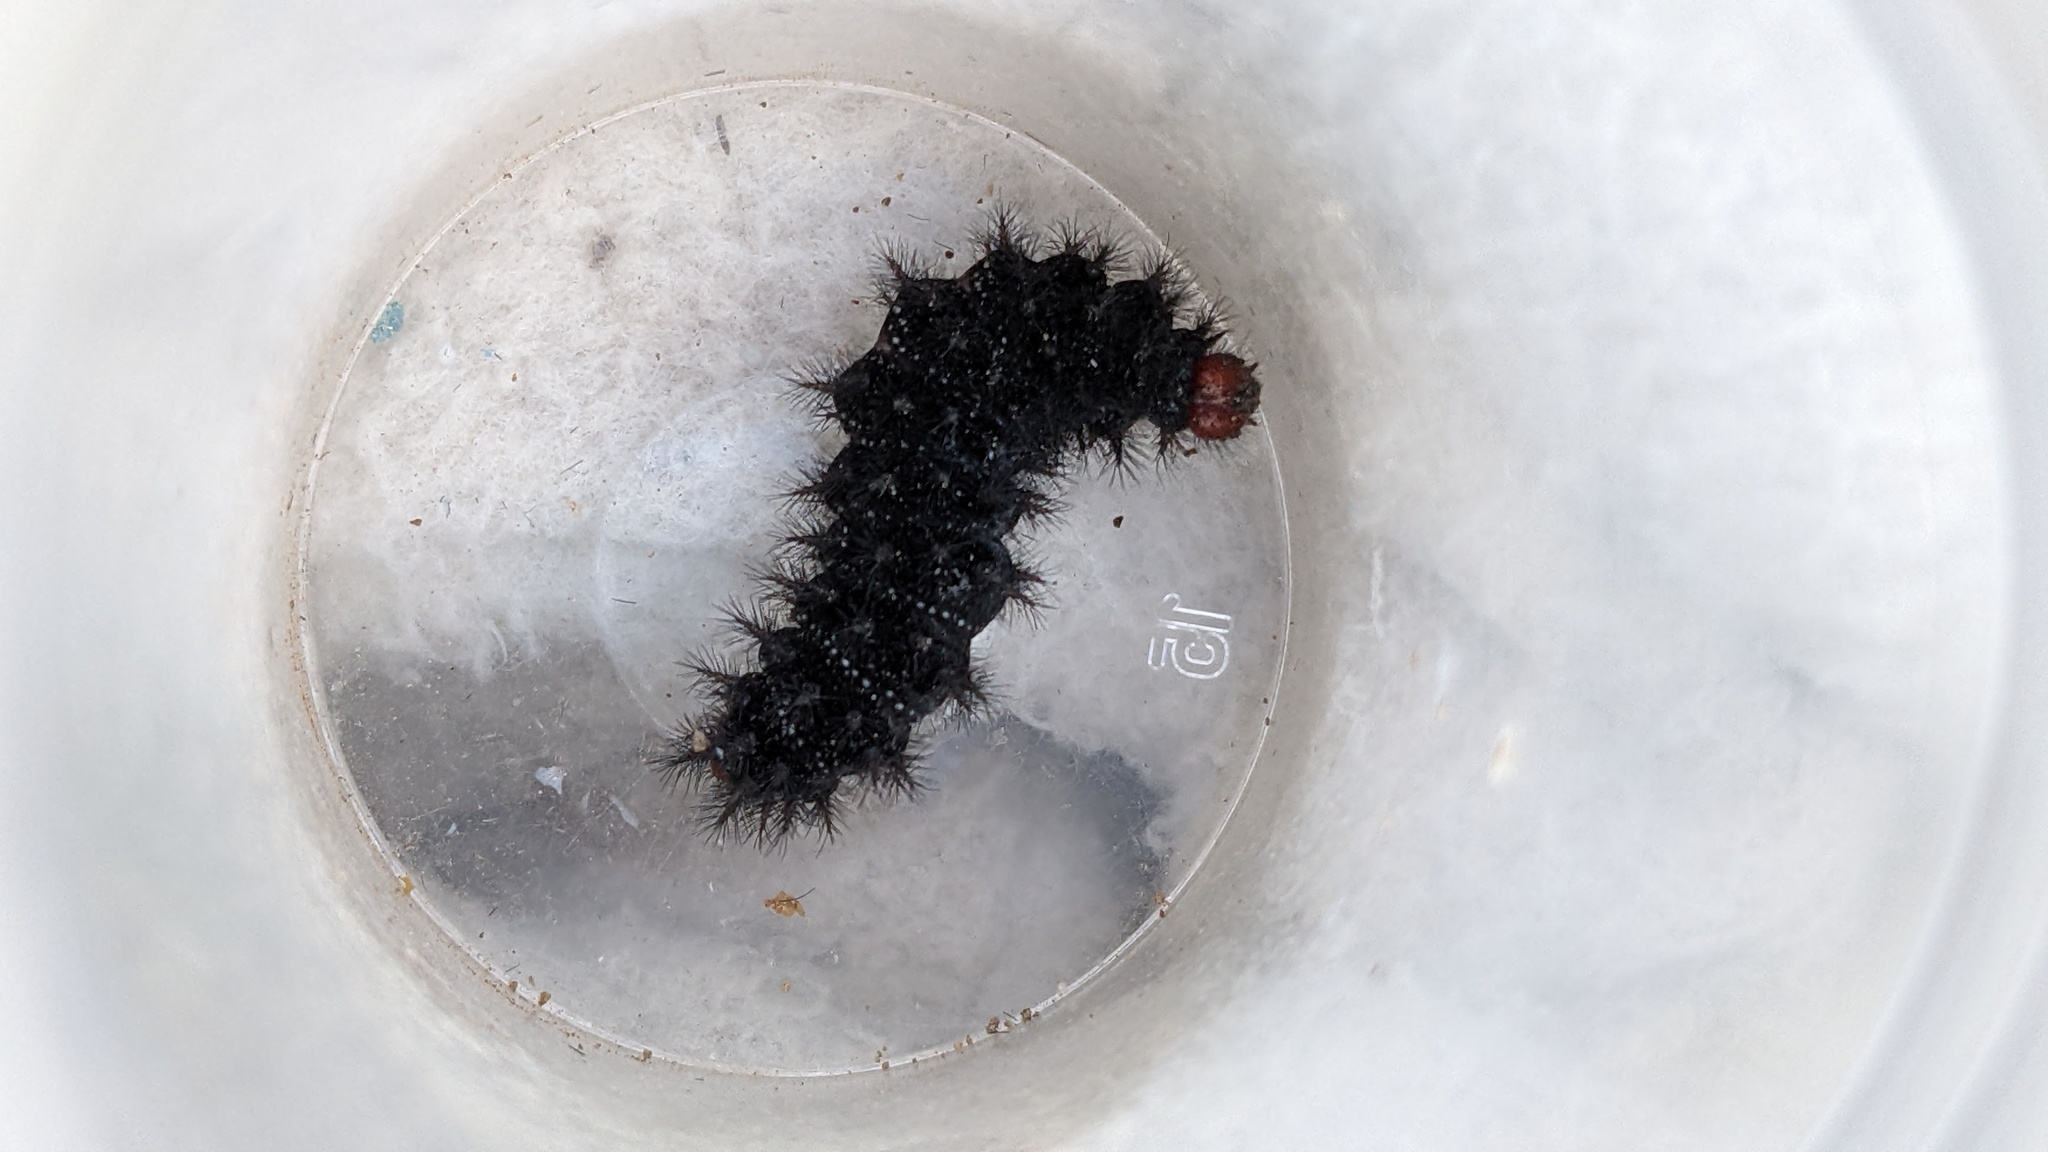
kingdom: Animalia
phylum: Arthropoda
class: Insecta
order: Lepidoptera
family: Nymphalidae
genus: Melitaea
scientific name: Melitaea cinxia
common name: Glanville fritillary
